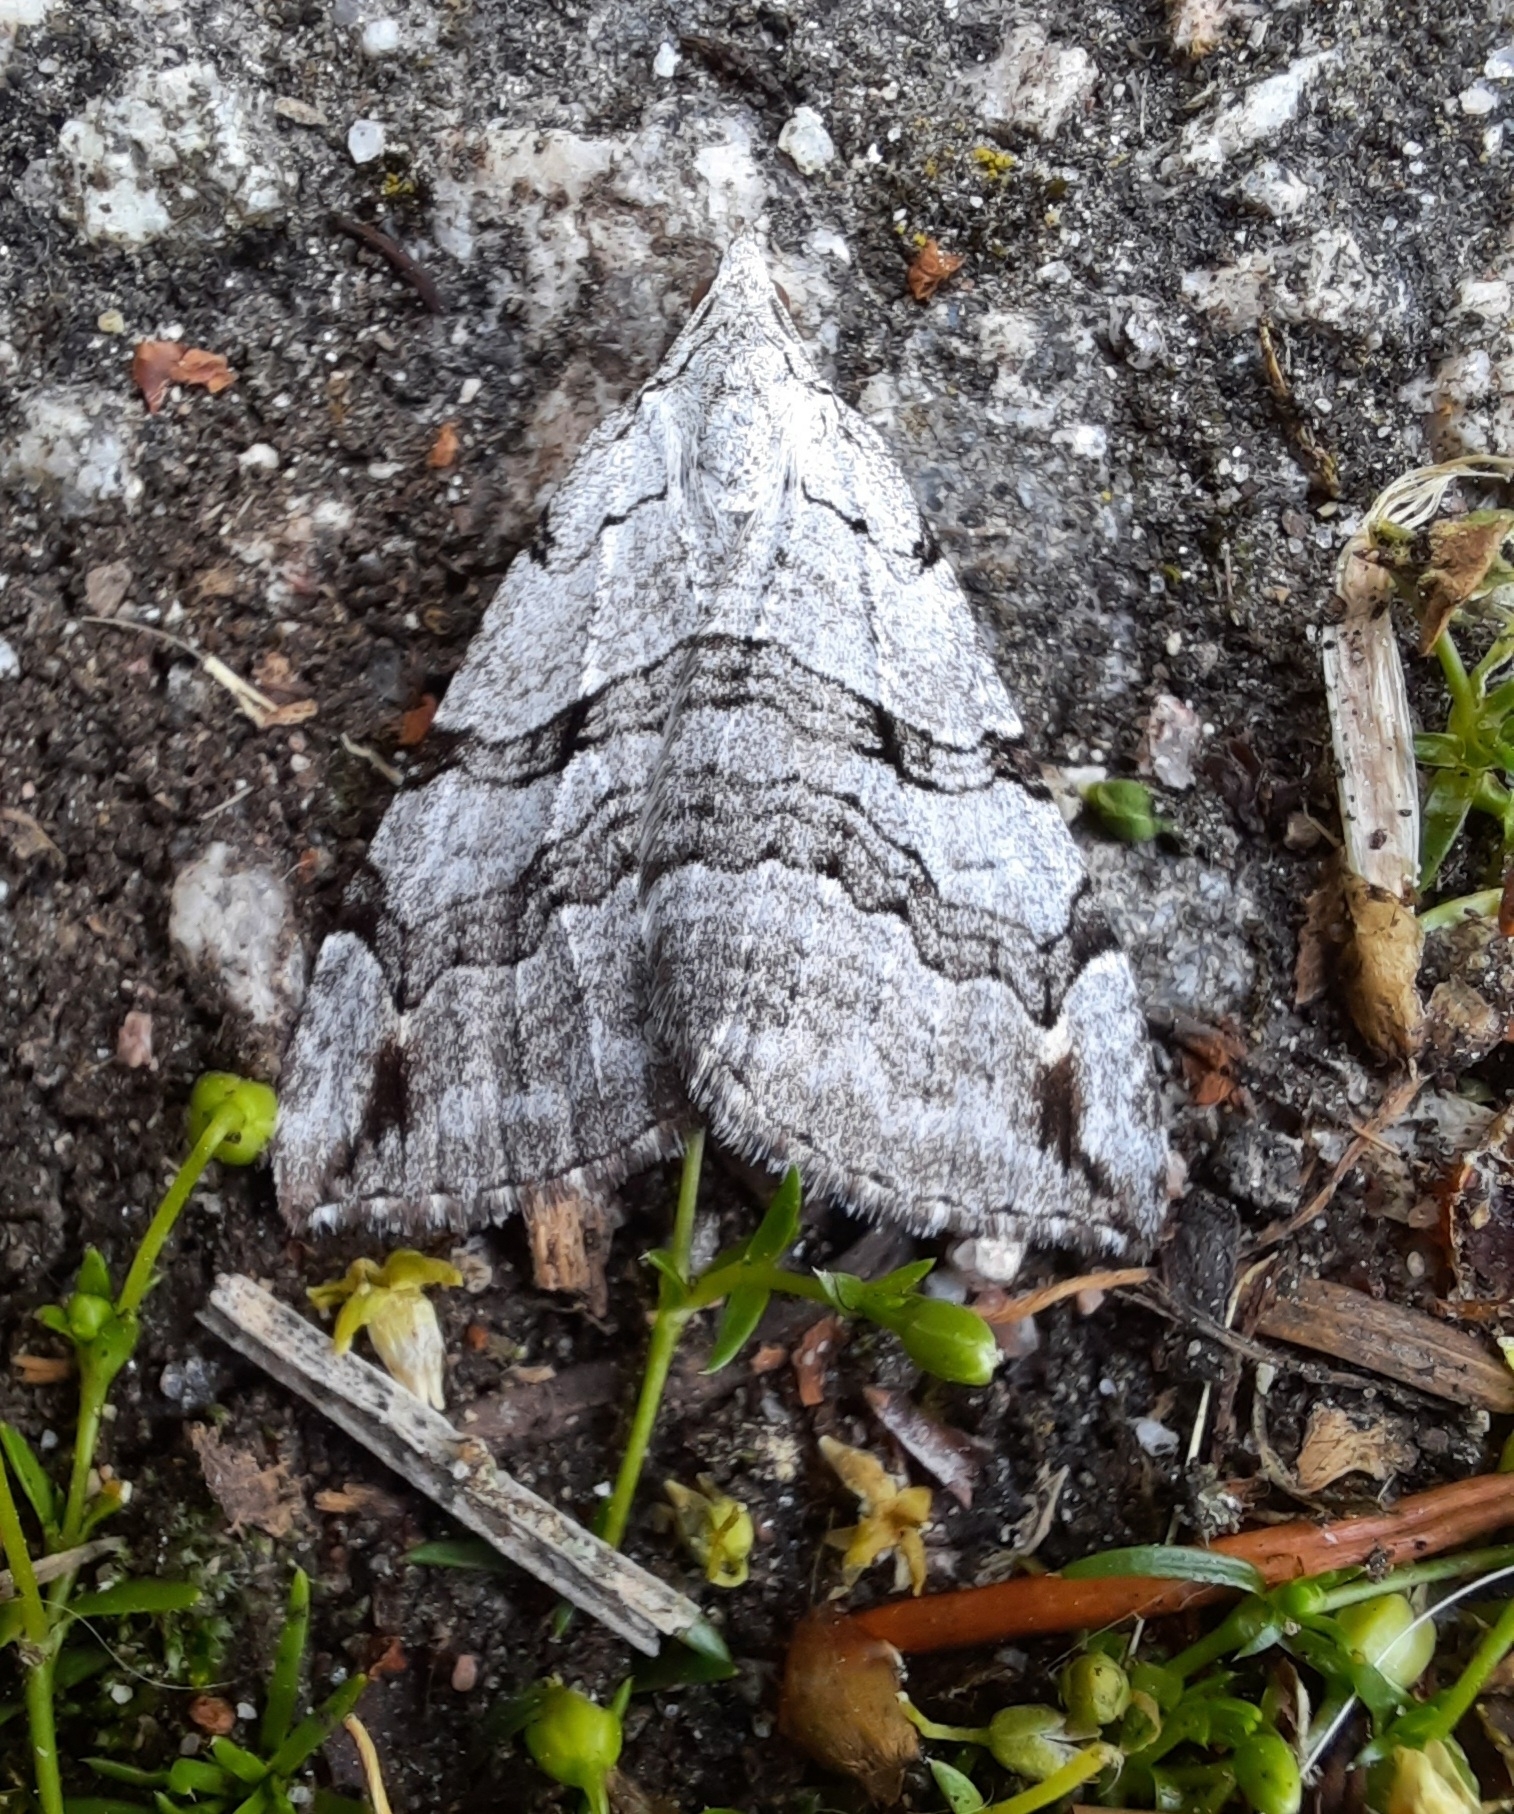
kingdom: Animalia
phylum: Arthropoda
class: Insecta
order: Lepidoptera
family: Geometridae
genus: Aplocera
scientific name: Aplocera plagiata
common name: Treble-bar
